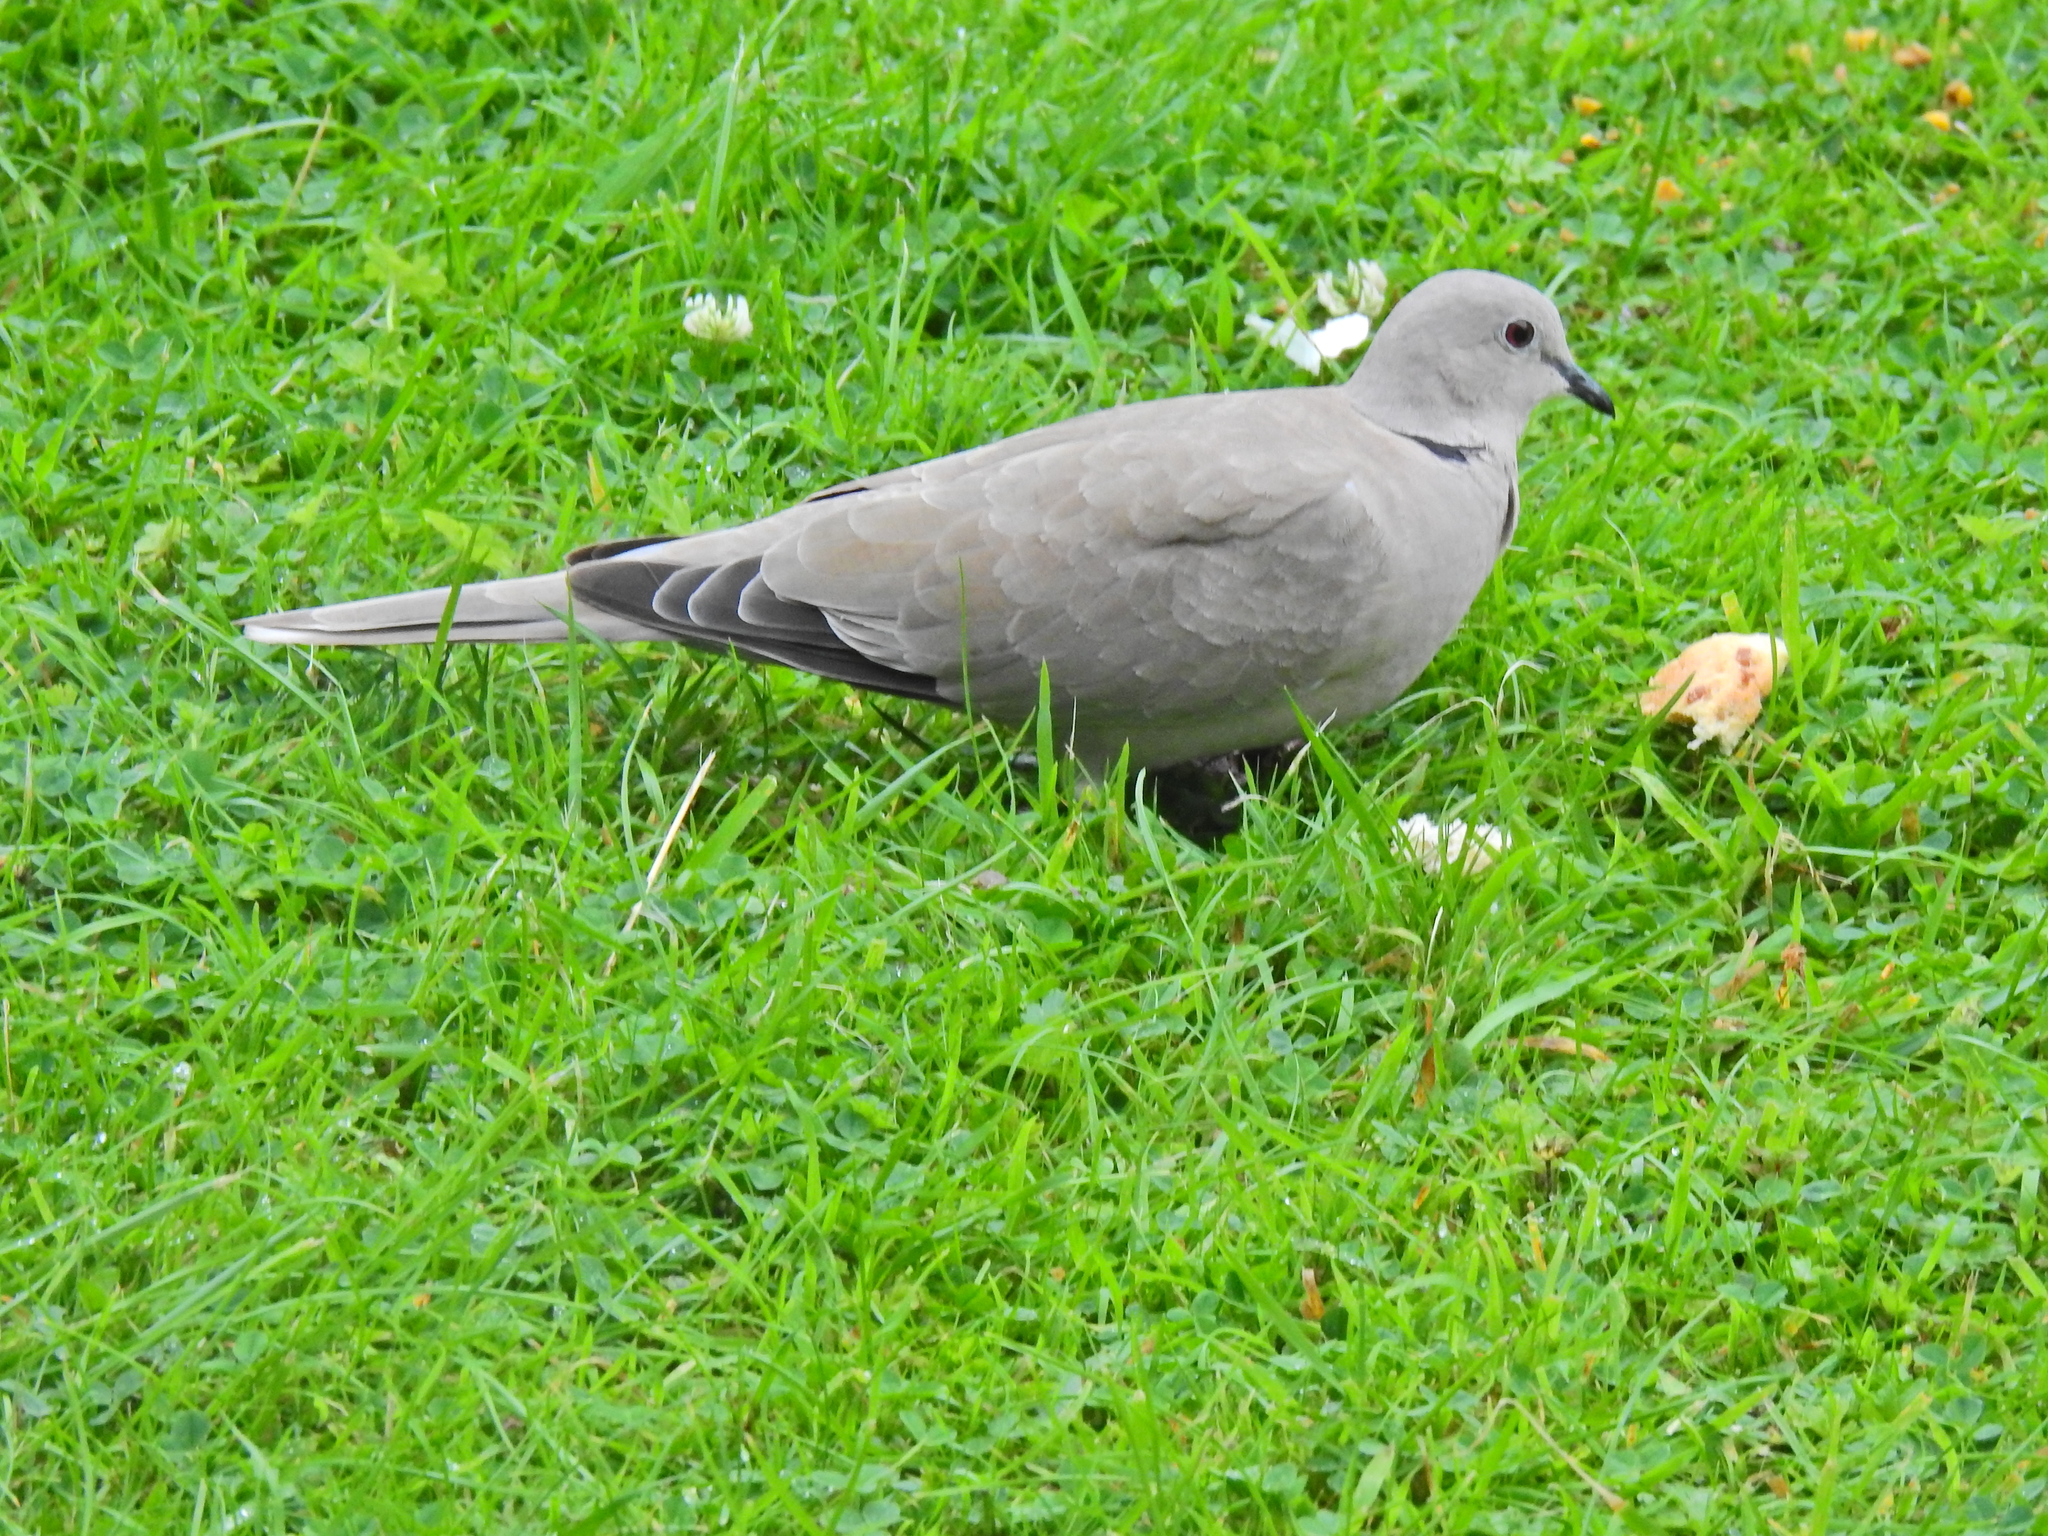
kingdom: Animalia
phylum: Chordata
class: Aves
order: Columbiformes
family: Columbidae
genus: Streptopelia
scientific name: Streptopelia decaocto
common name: Eurasian collared dove
